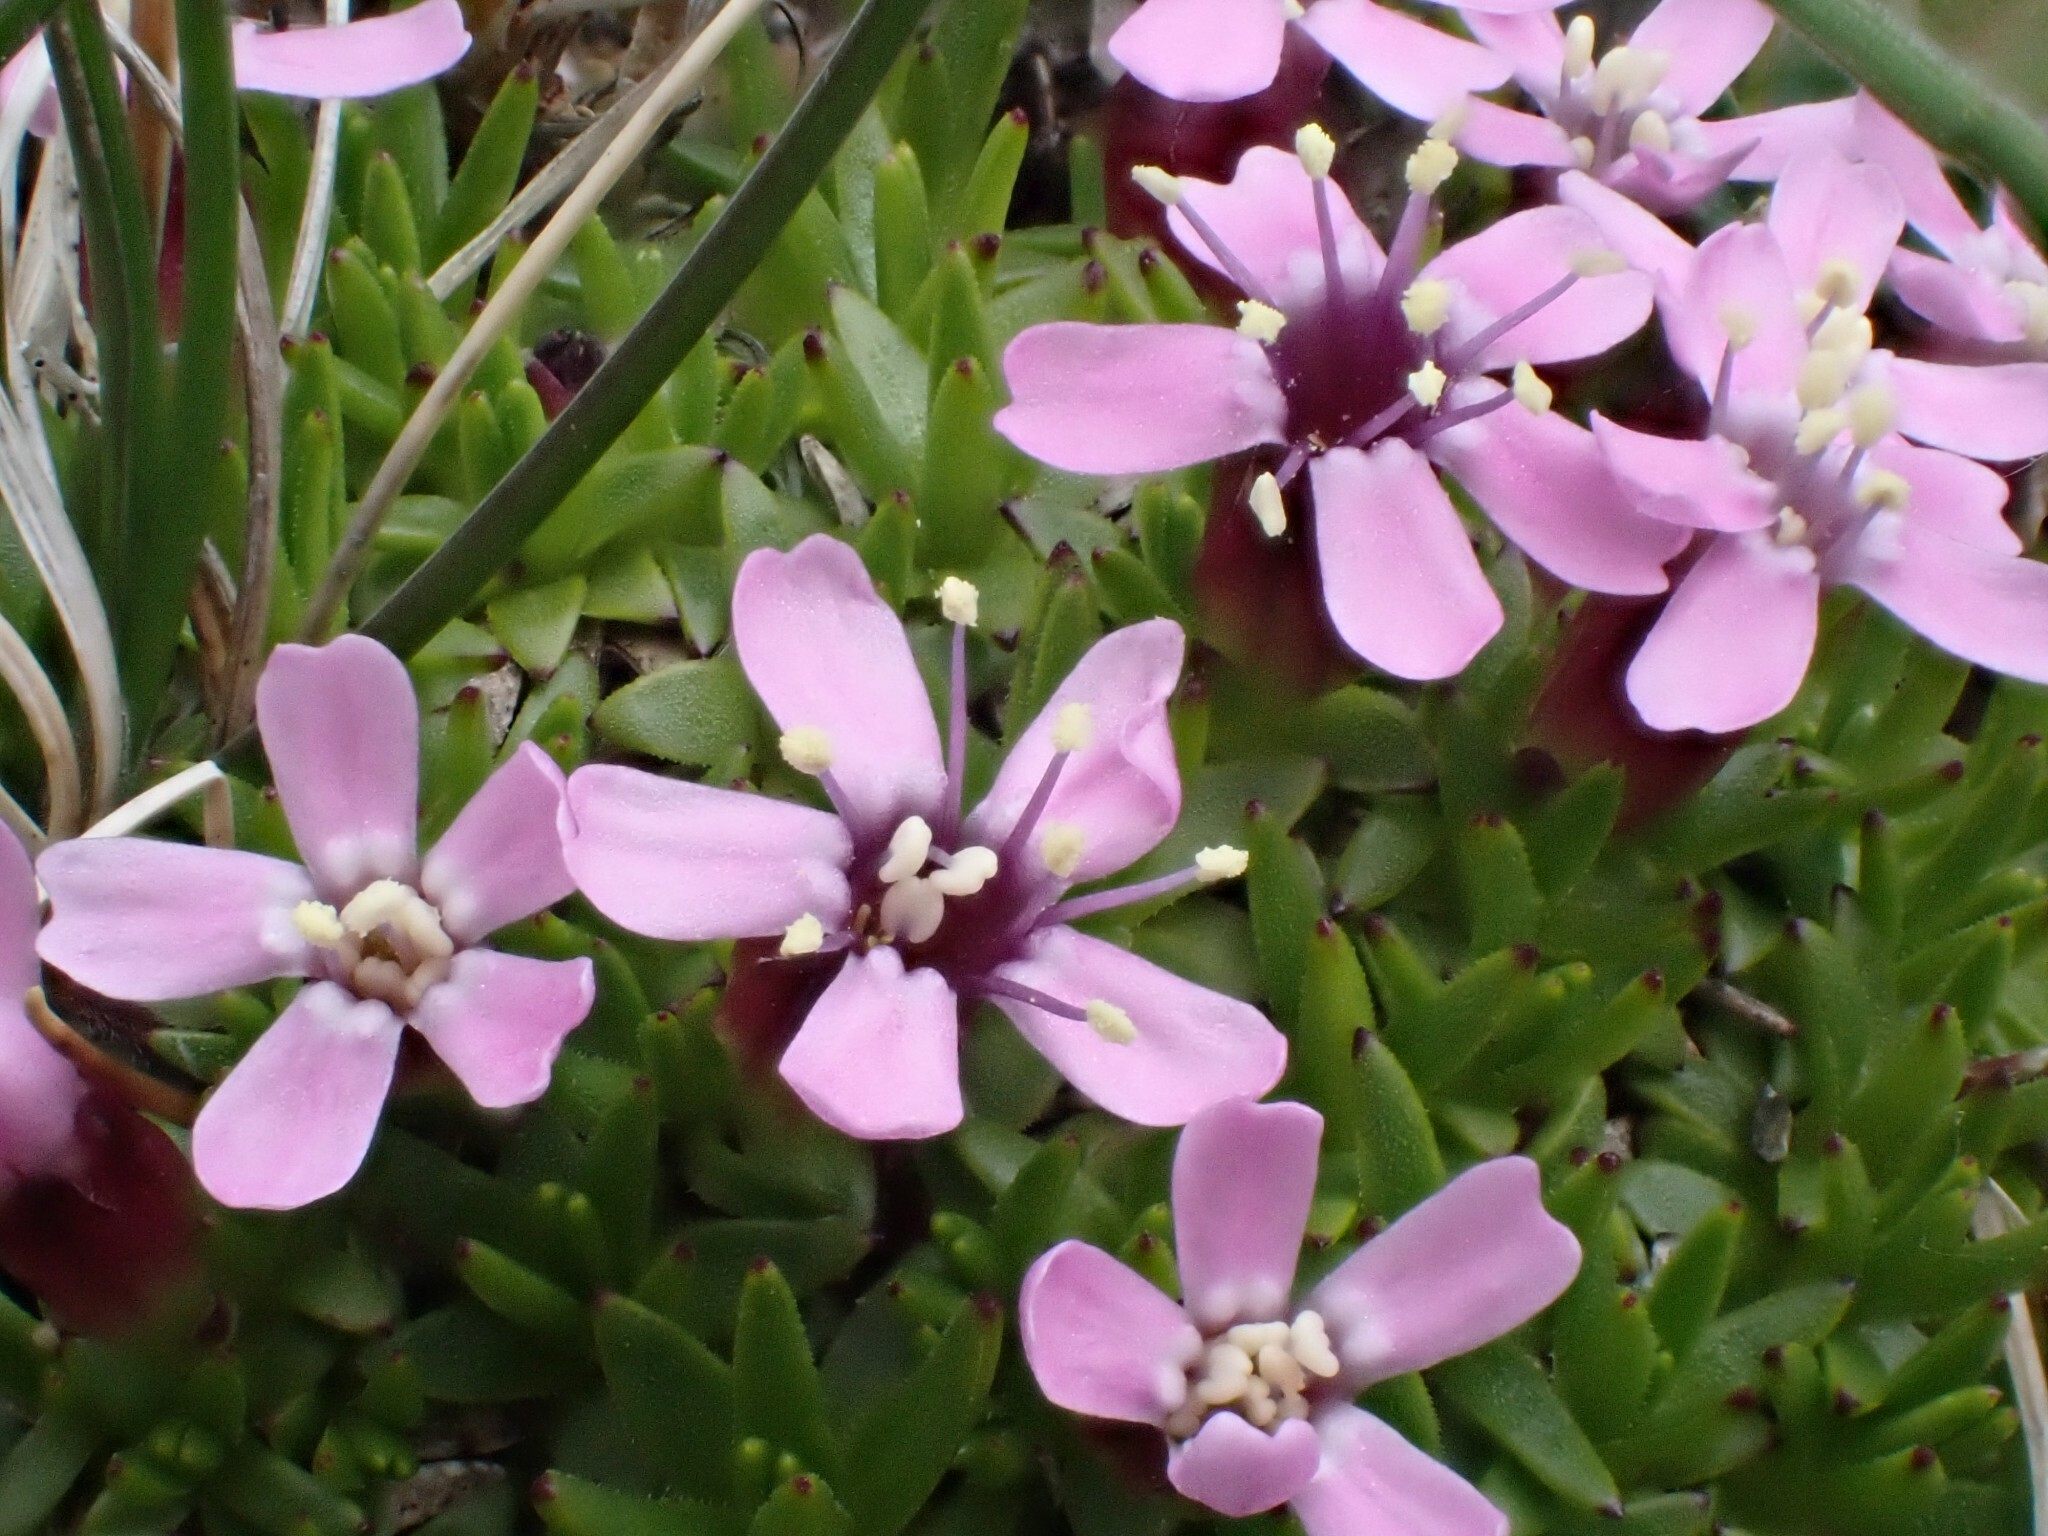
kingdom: Plantae
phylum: Tracheophyta
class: Magnoliopsida
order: Caryophyllales
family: Caryophyllaceae
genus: Silene
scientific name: Silene acaulis
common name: Moss campion
